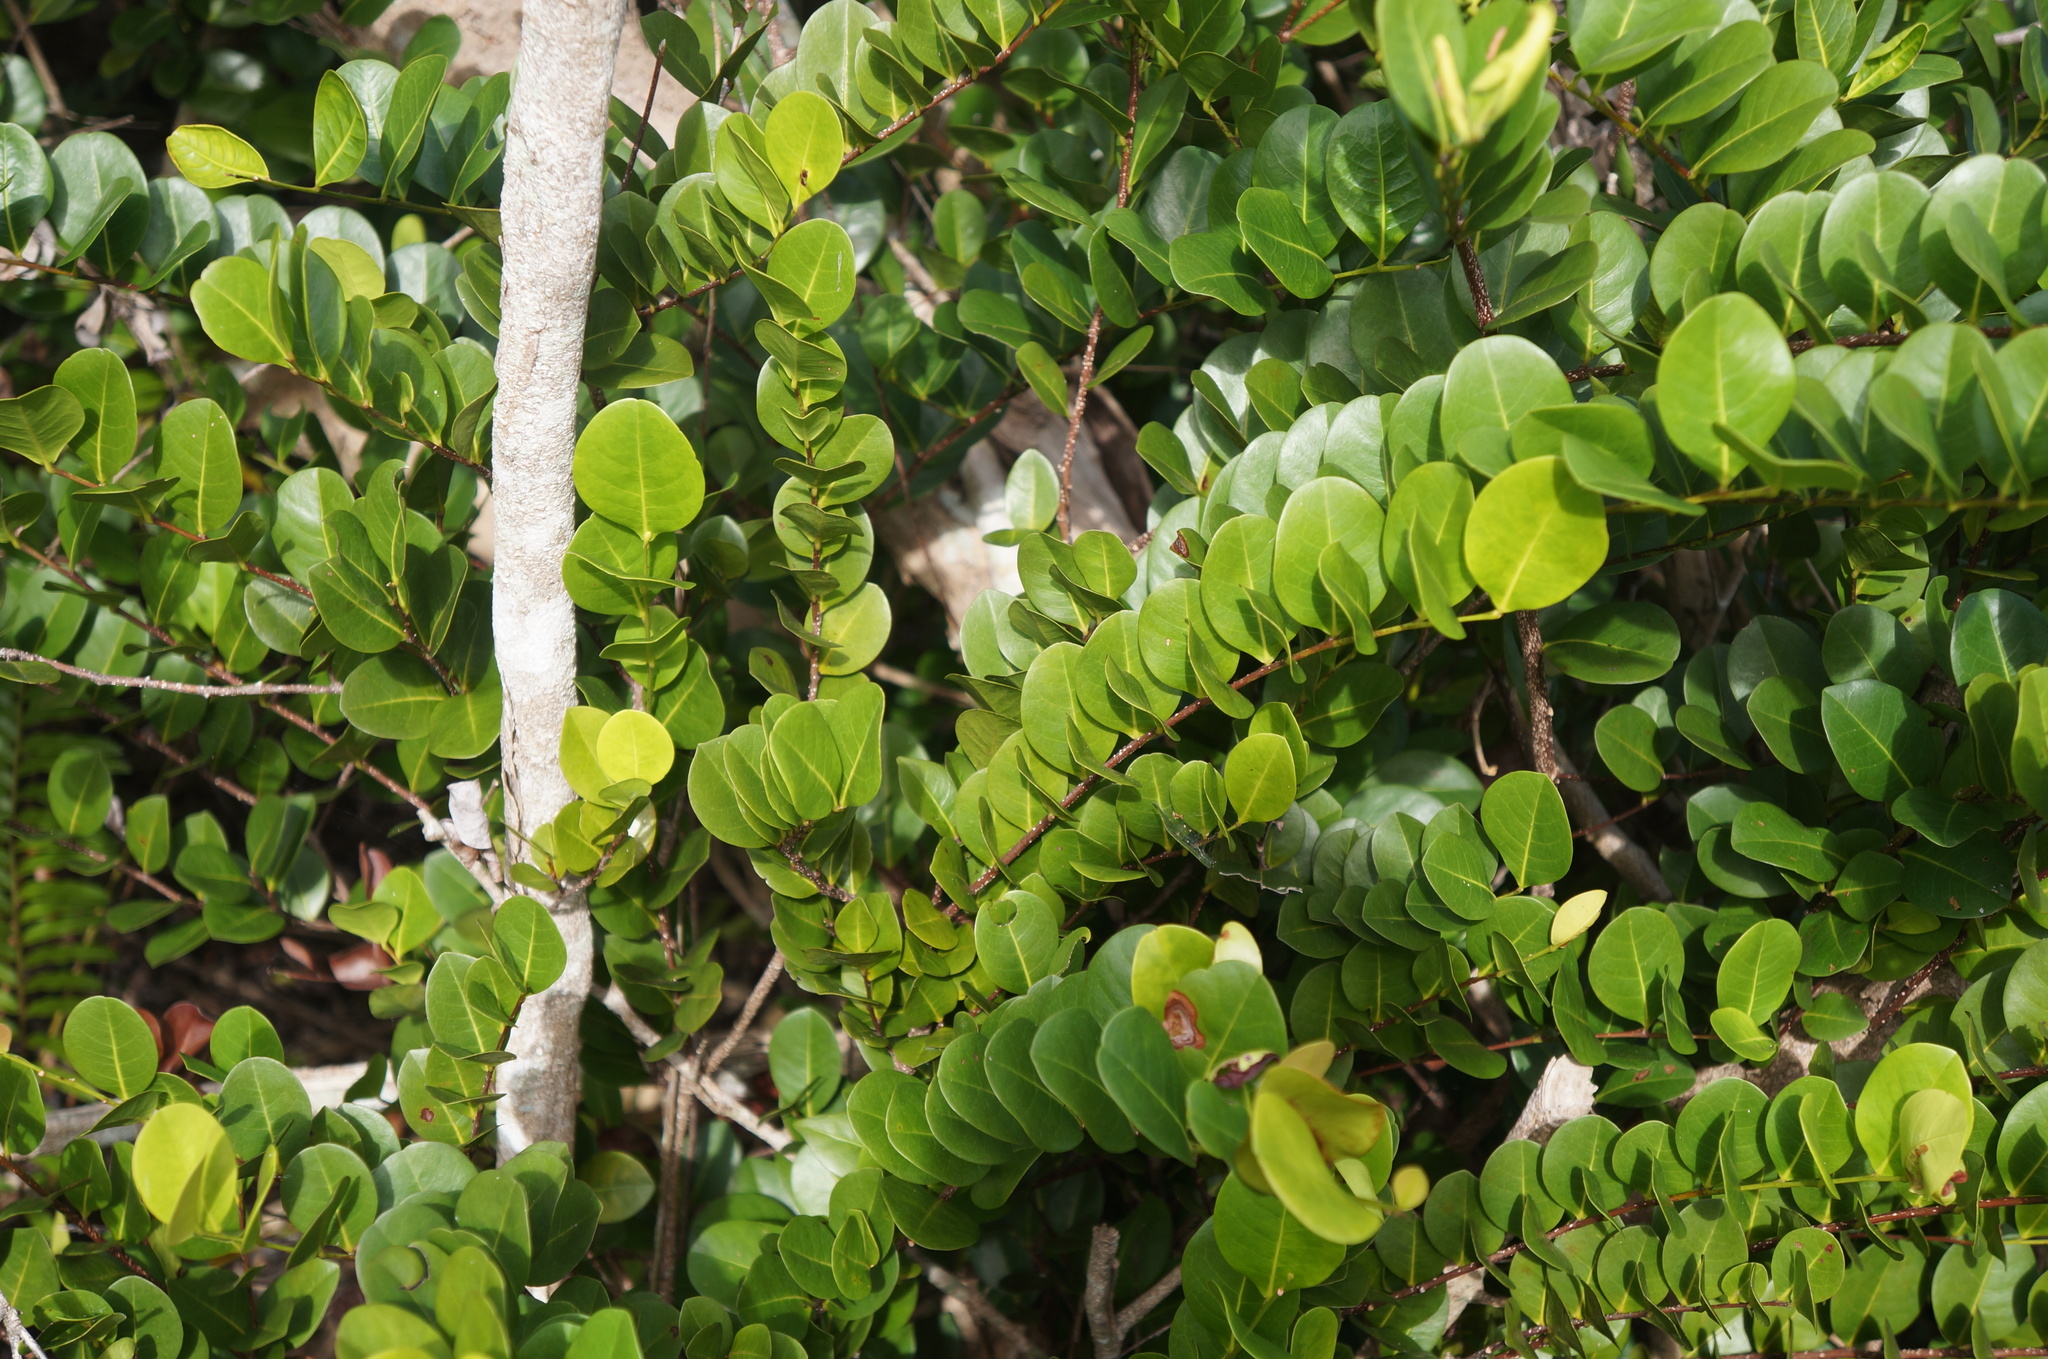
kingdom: Plantae
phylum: Tracheophyta
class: Magnoliopsida
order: Malpighiales
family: Chrysobalanaceae
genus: Chrysobalanus
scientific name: Chrysobalanus icaco
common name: Coco plum
